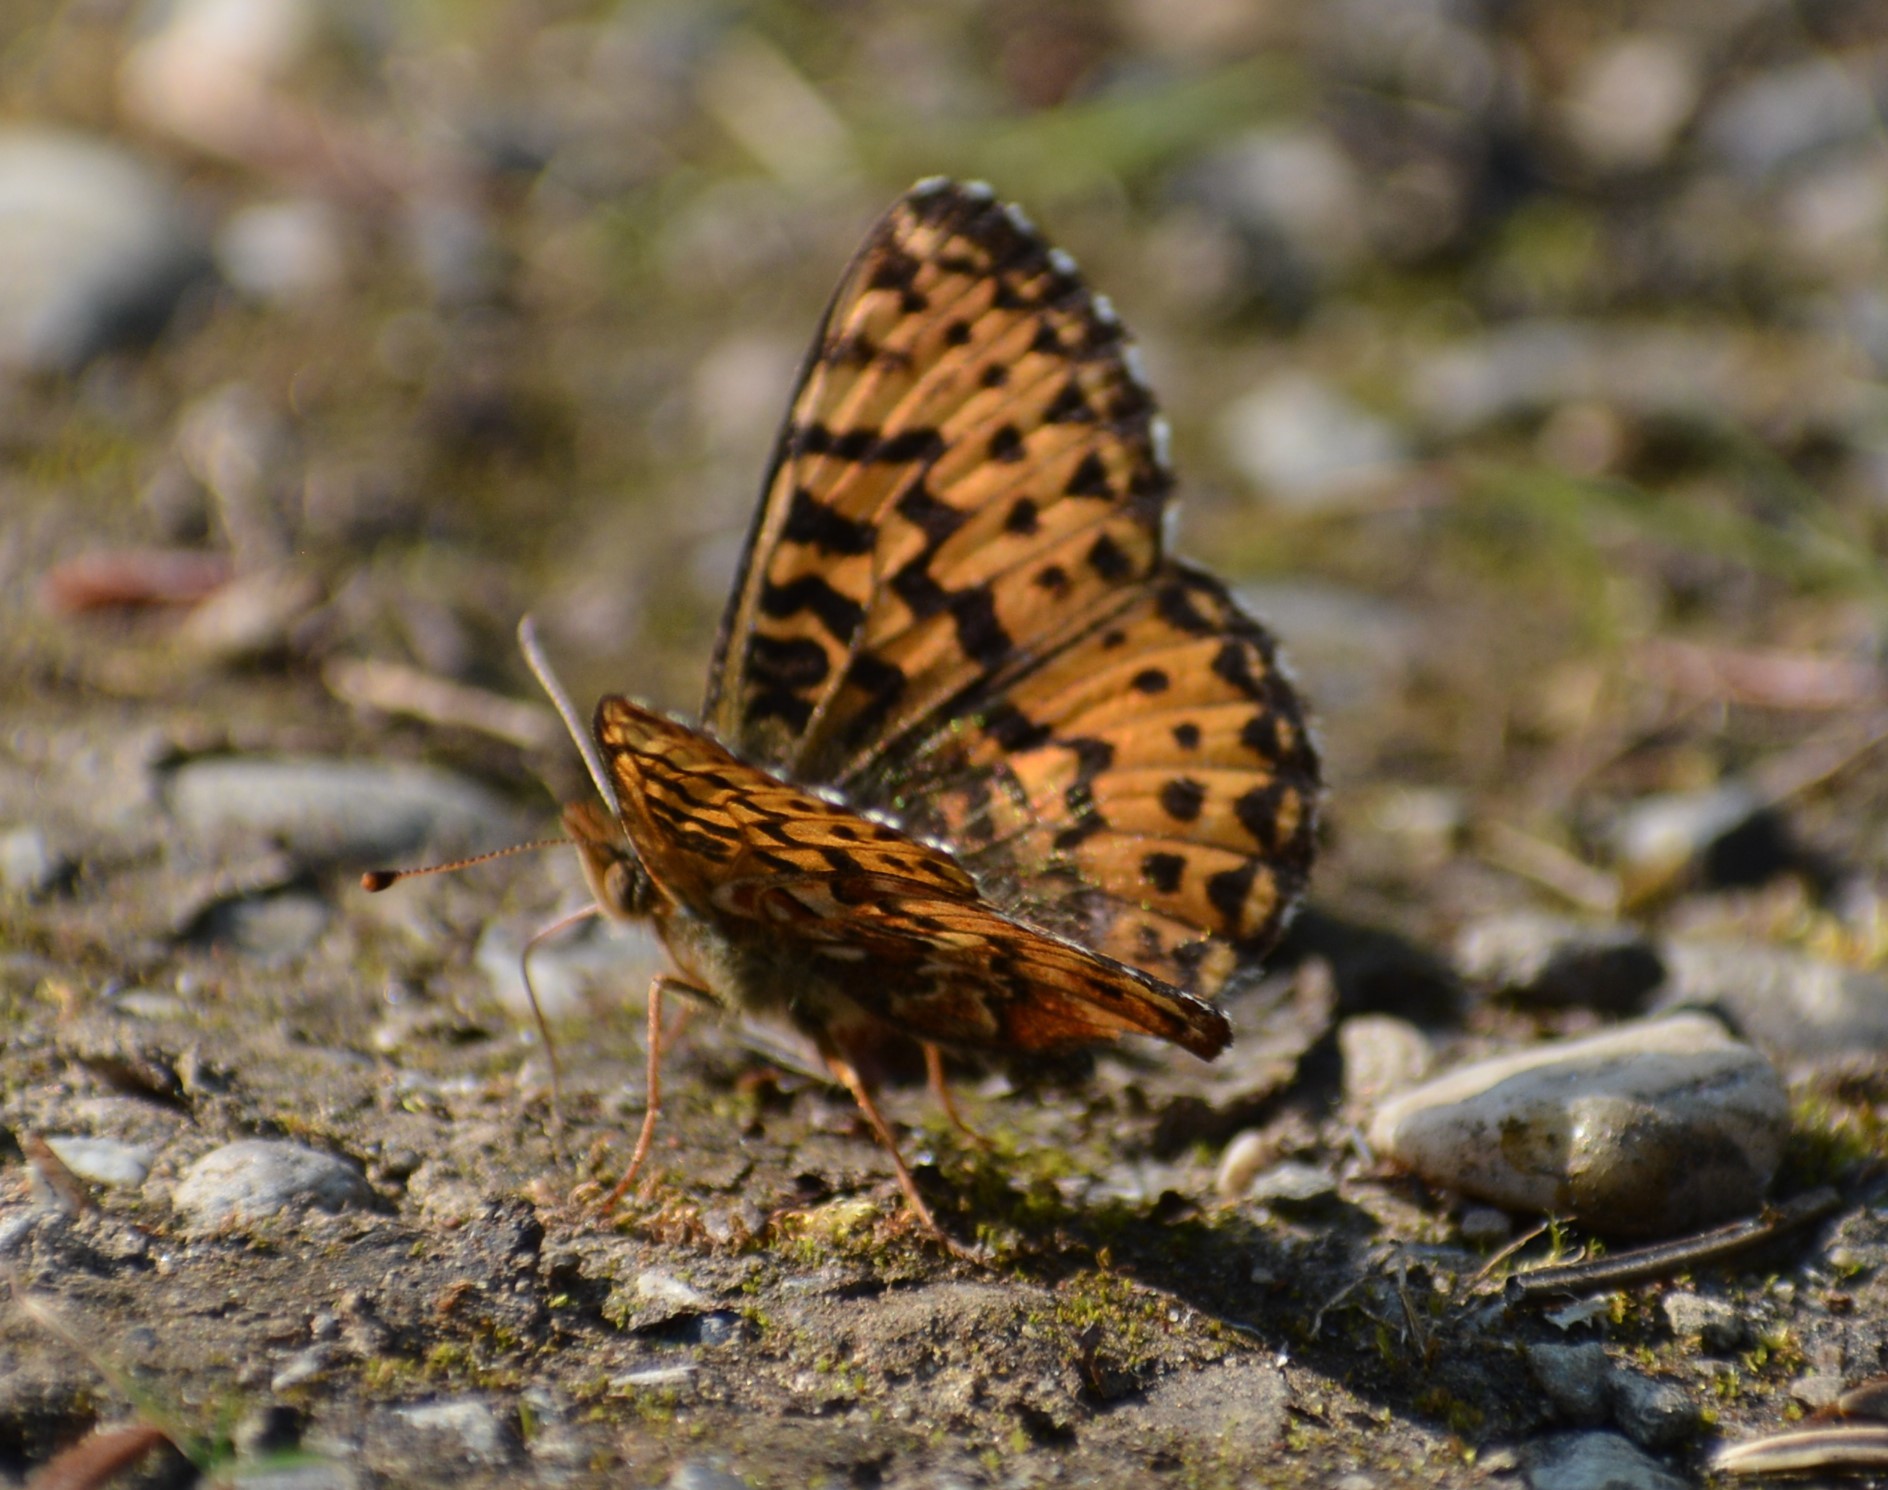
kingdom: Animalia
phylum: Arthropoda
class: Insecta
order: Lepidoptera
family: Nymphalidae
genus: Boloria
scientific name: Boloria chariclea
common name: Arctic fritillary
